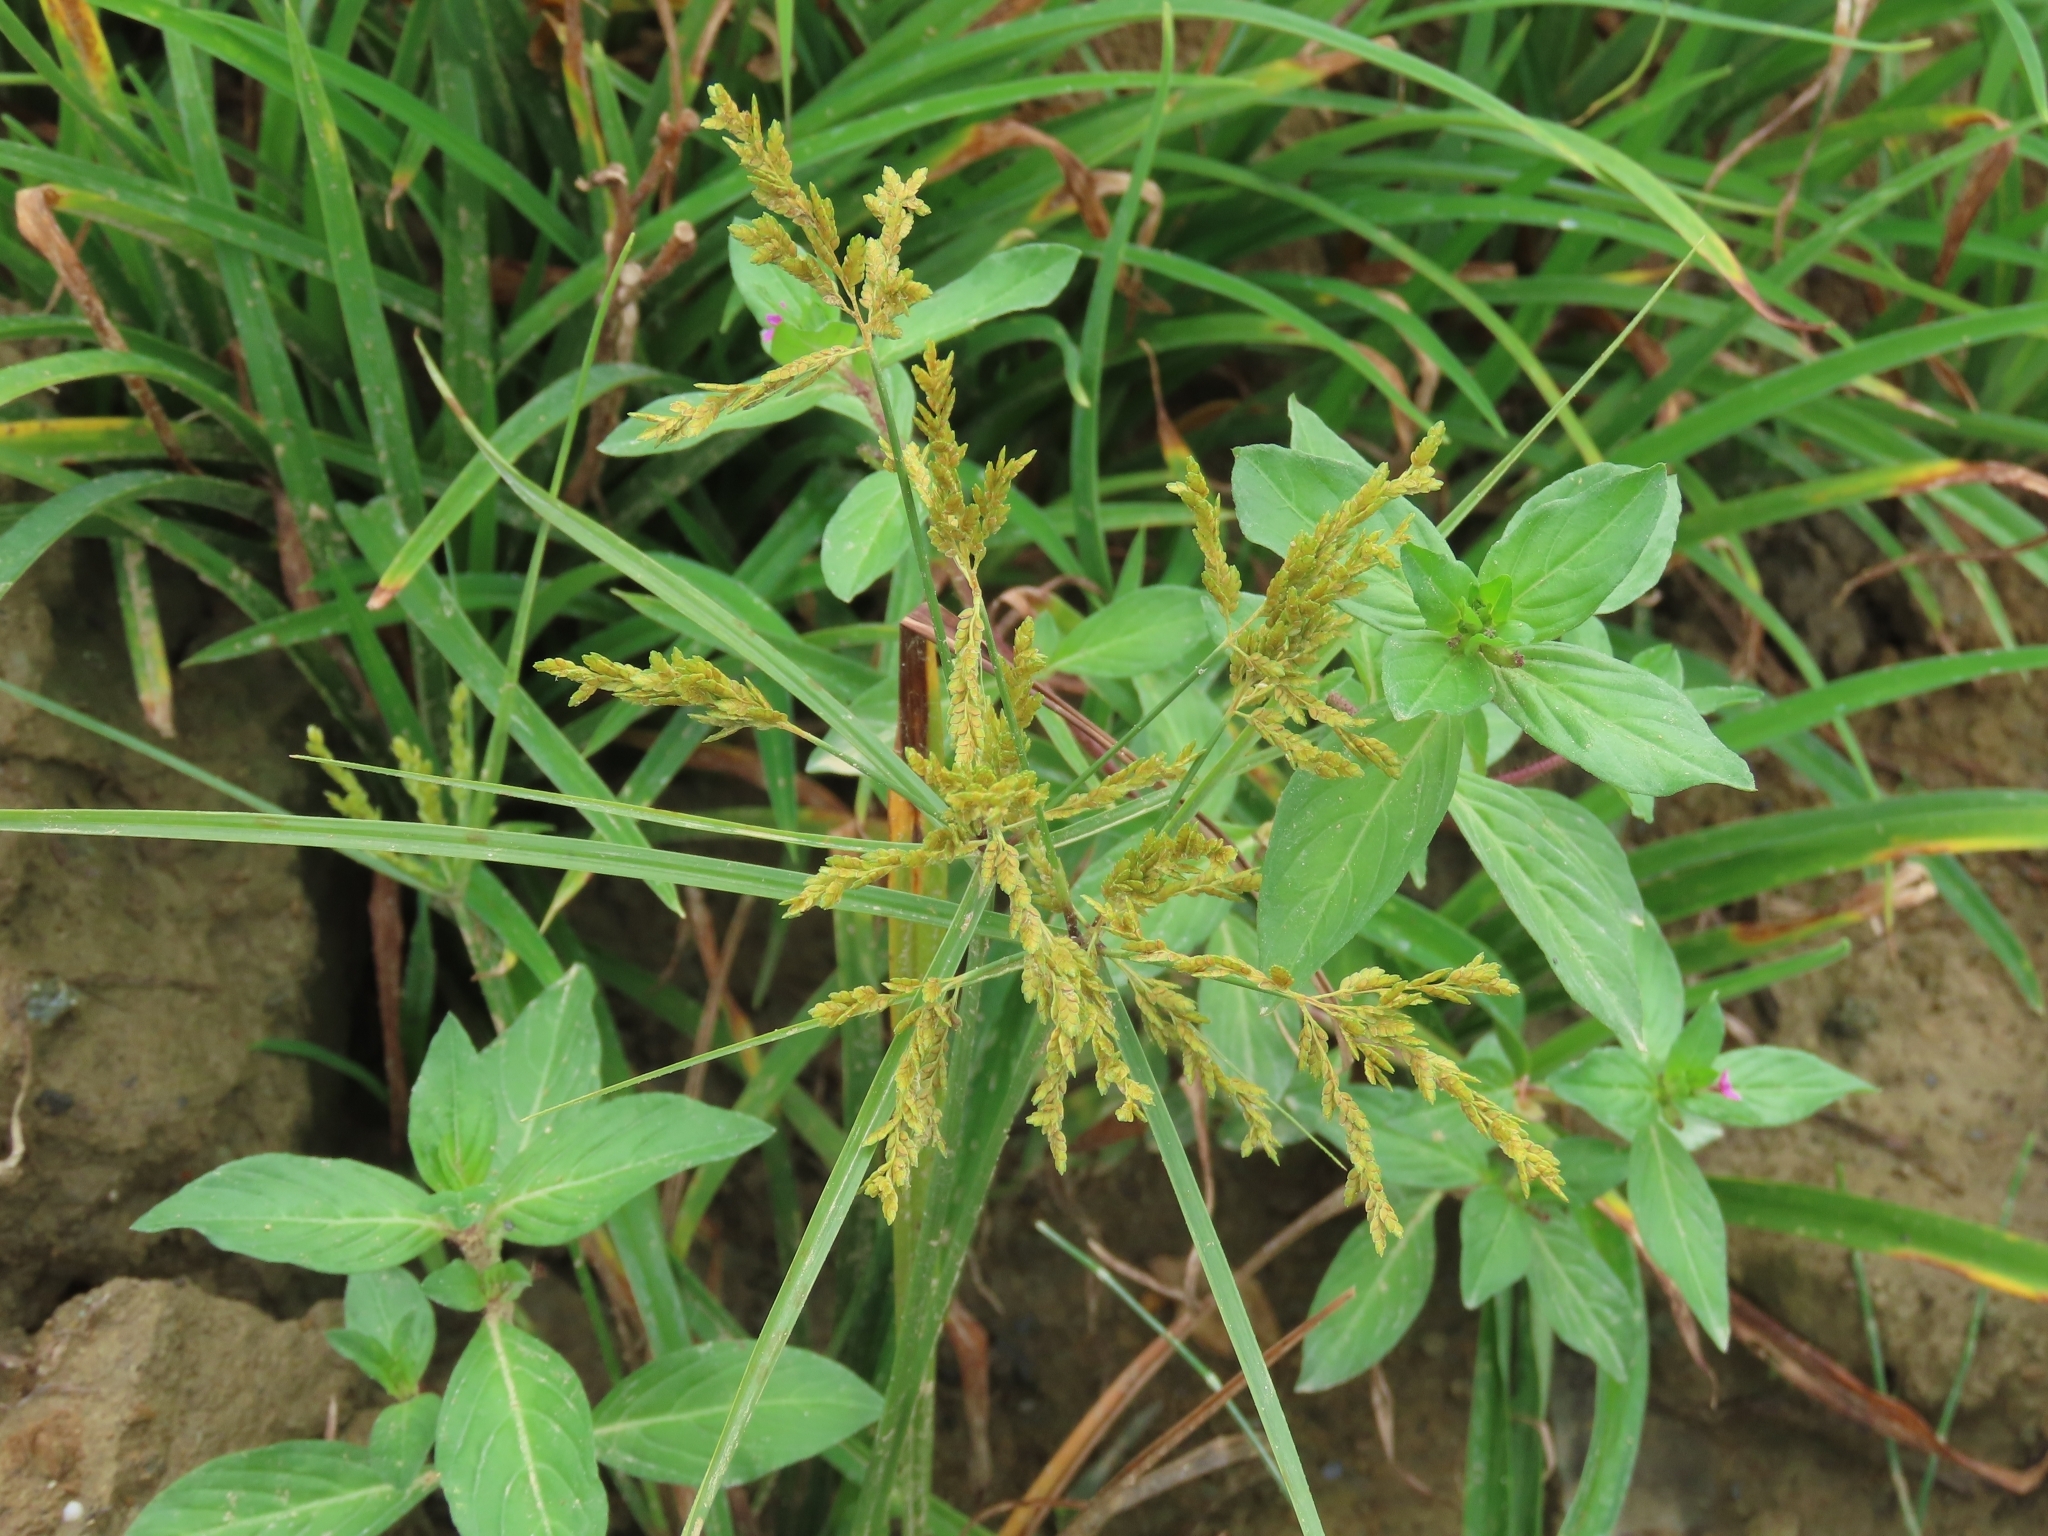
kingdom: Plantae
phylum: Tracheophyta
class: Liliopsida
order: Poales
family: Cyperaceae
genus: Cyperus
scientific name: Cyperus iria
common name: Ricefield flatsedge
